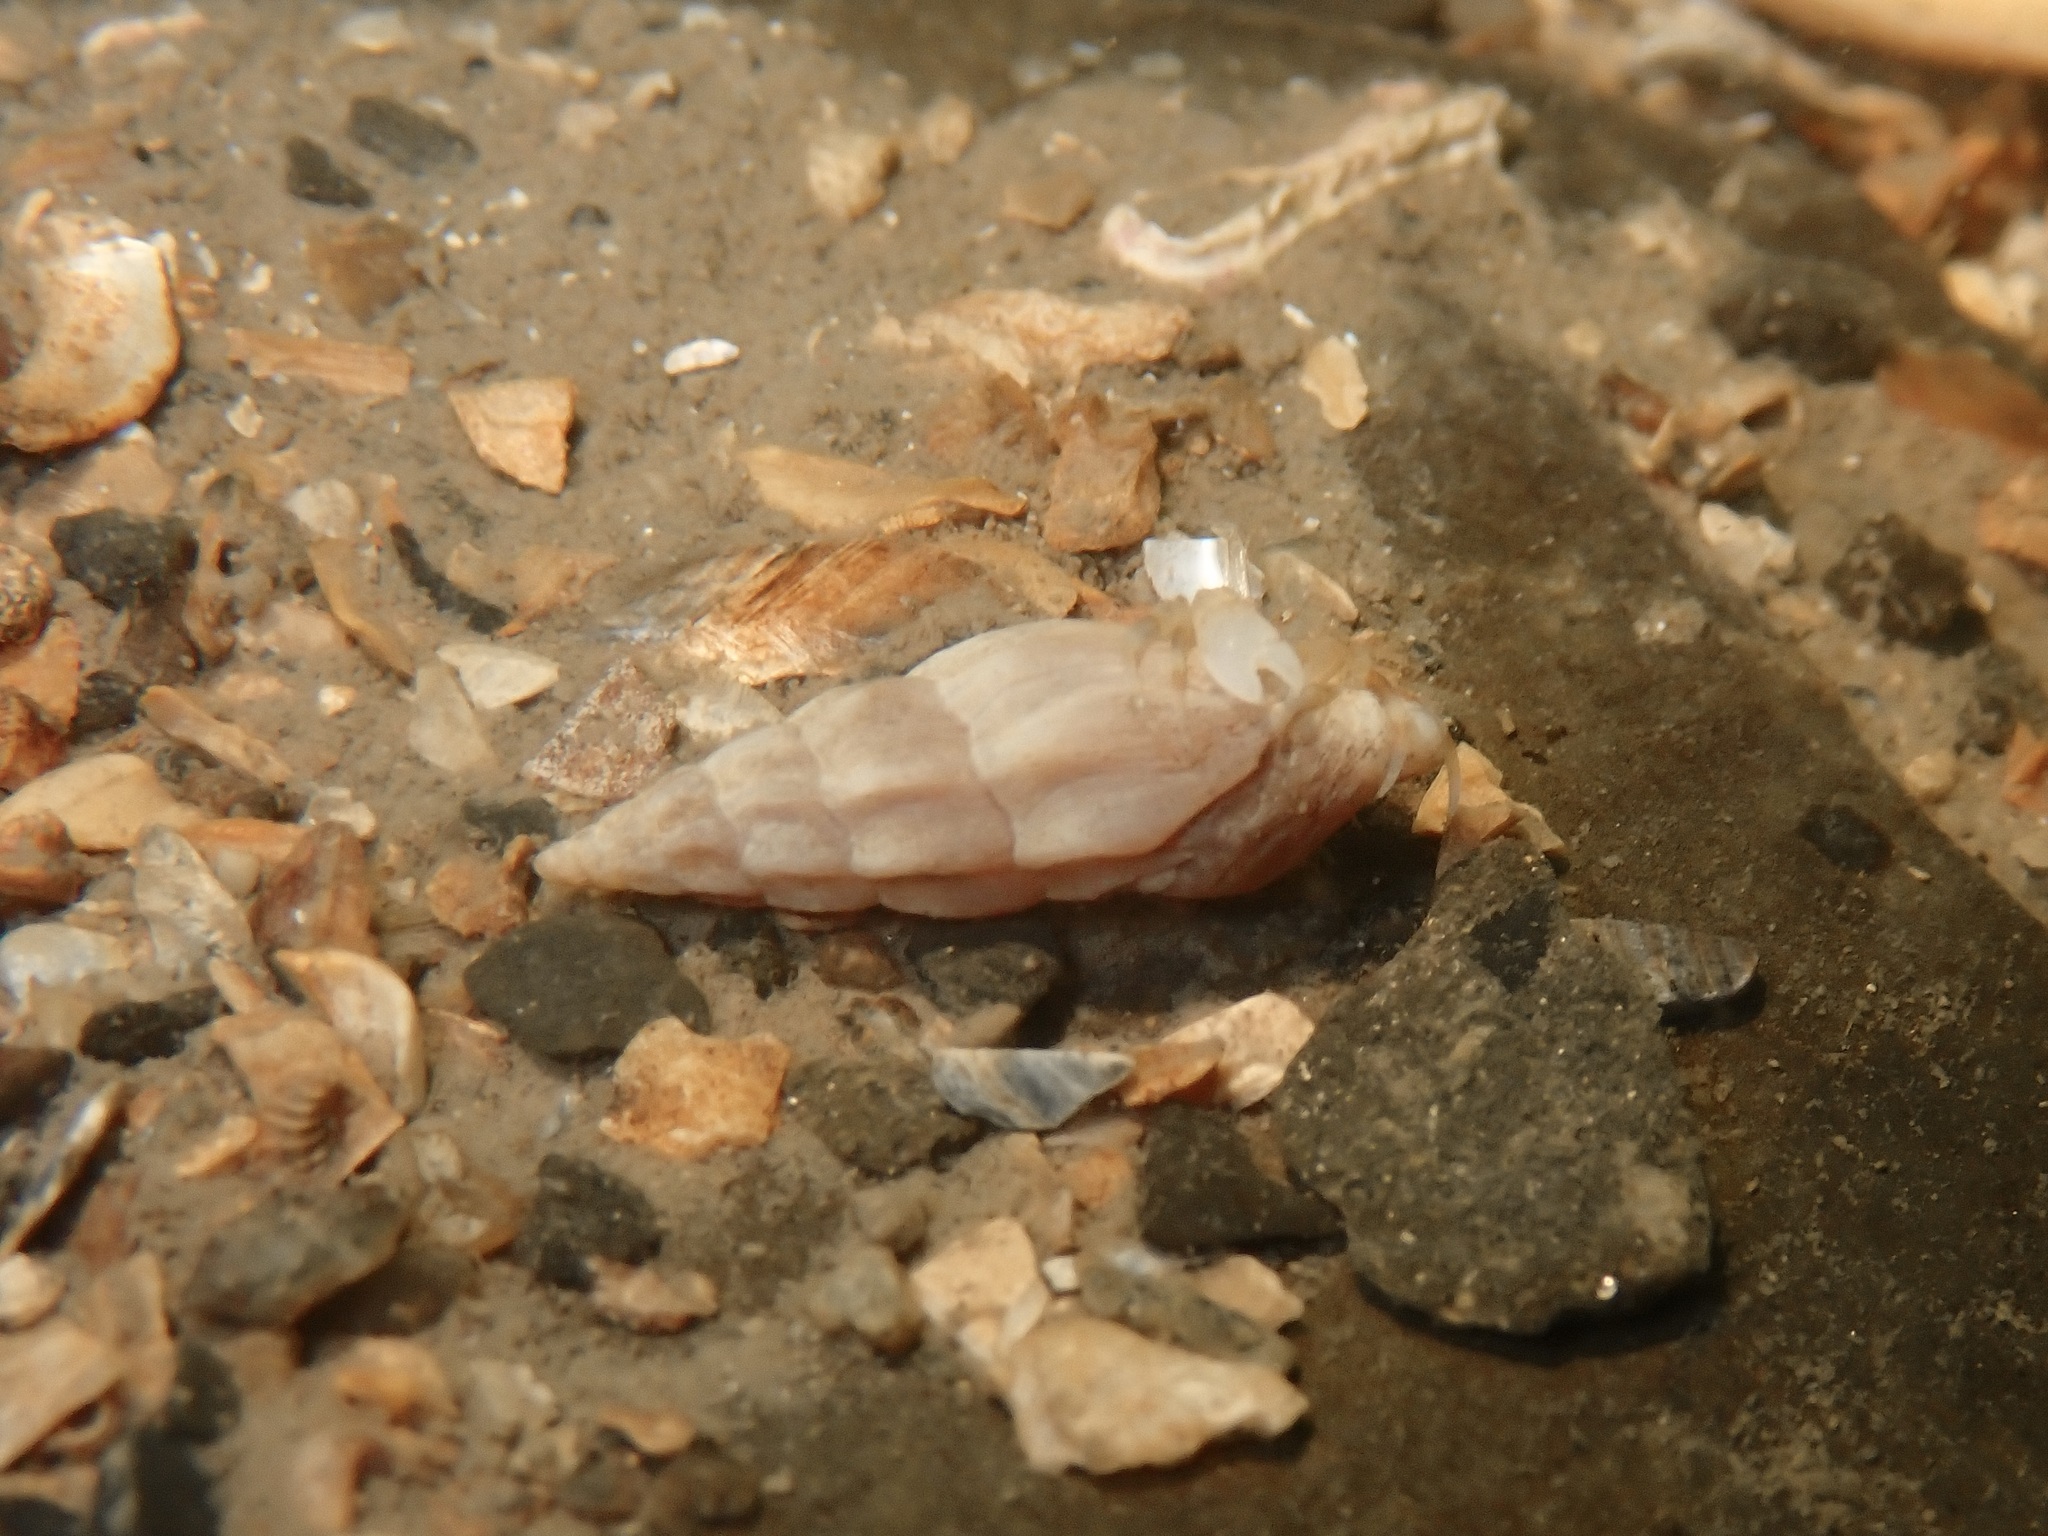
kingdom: Animalia
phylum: Arthropoda
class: Malacostraca
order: Decapoda
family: Paguridae
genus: Anapagurus
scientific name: Anapagurus hyndmanni
